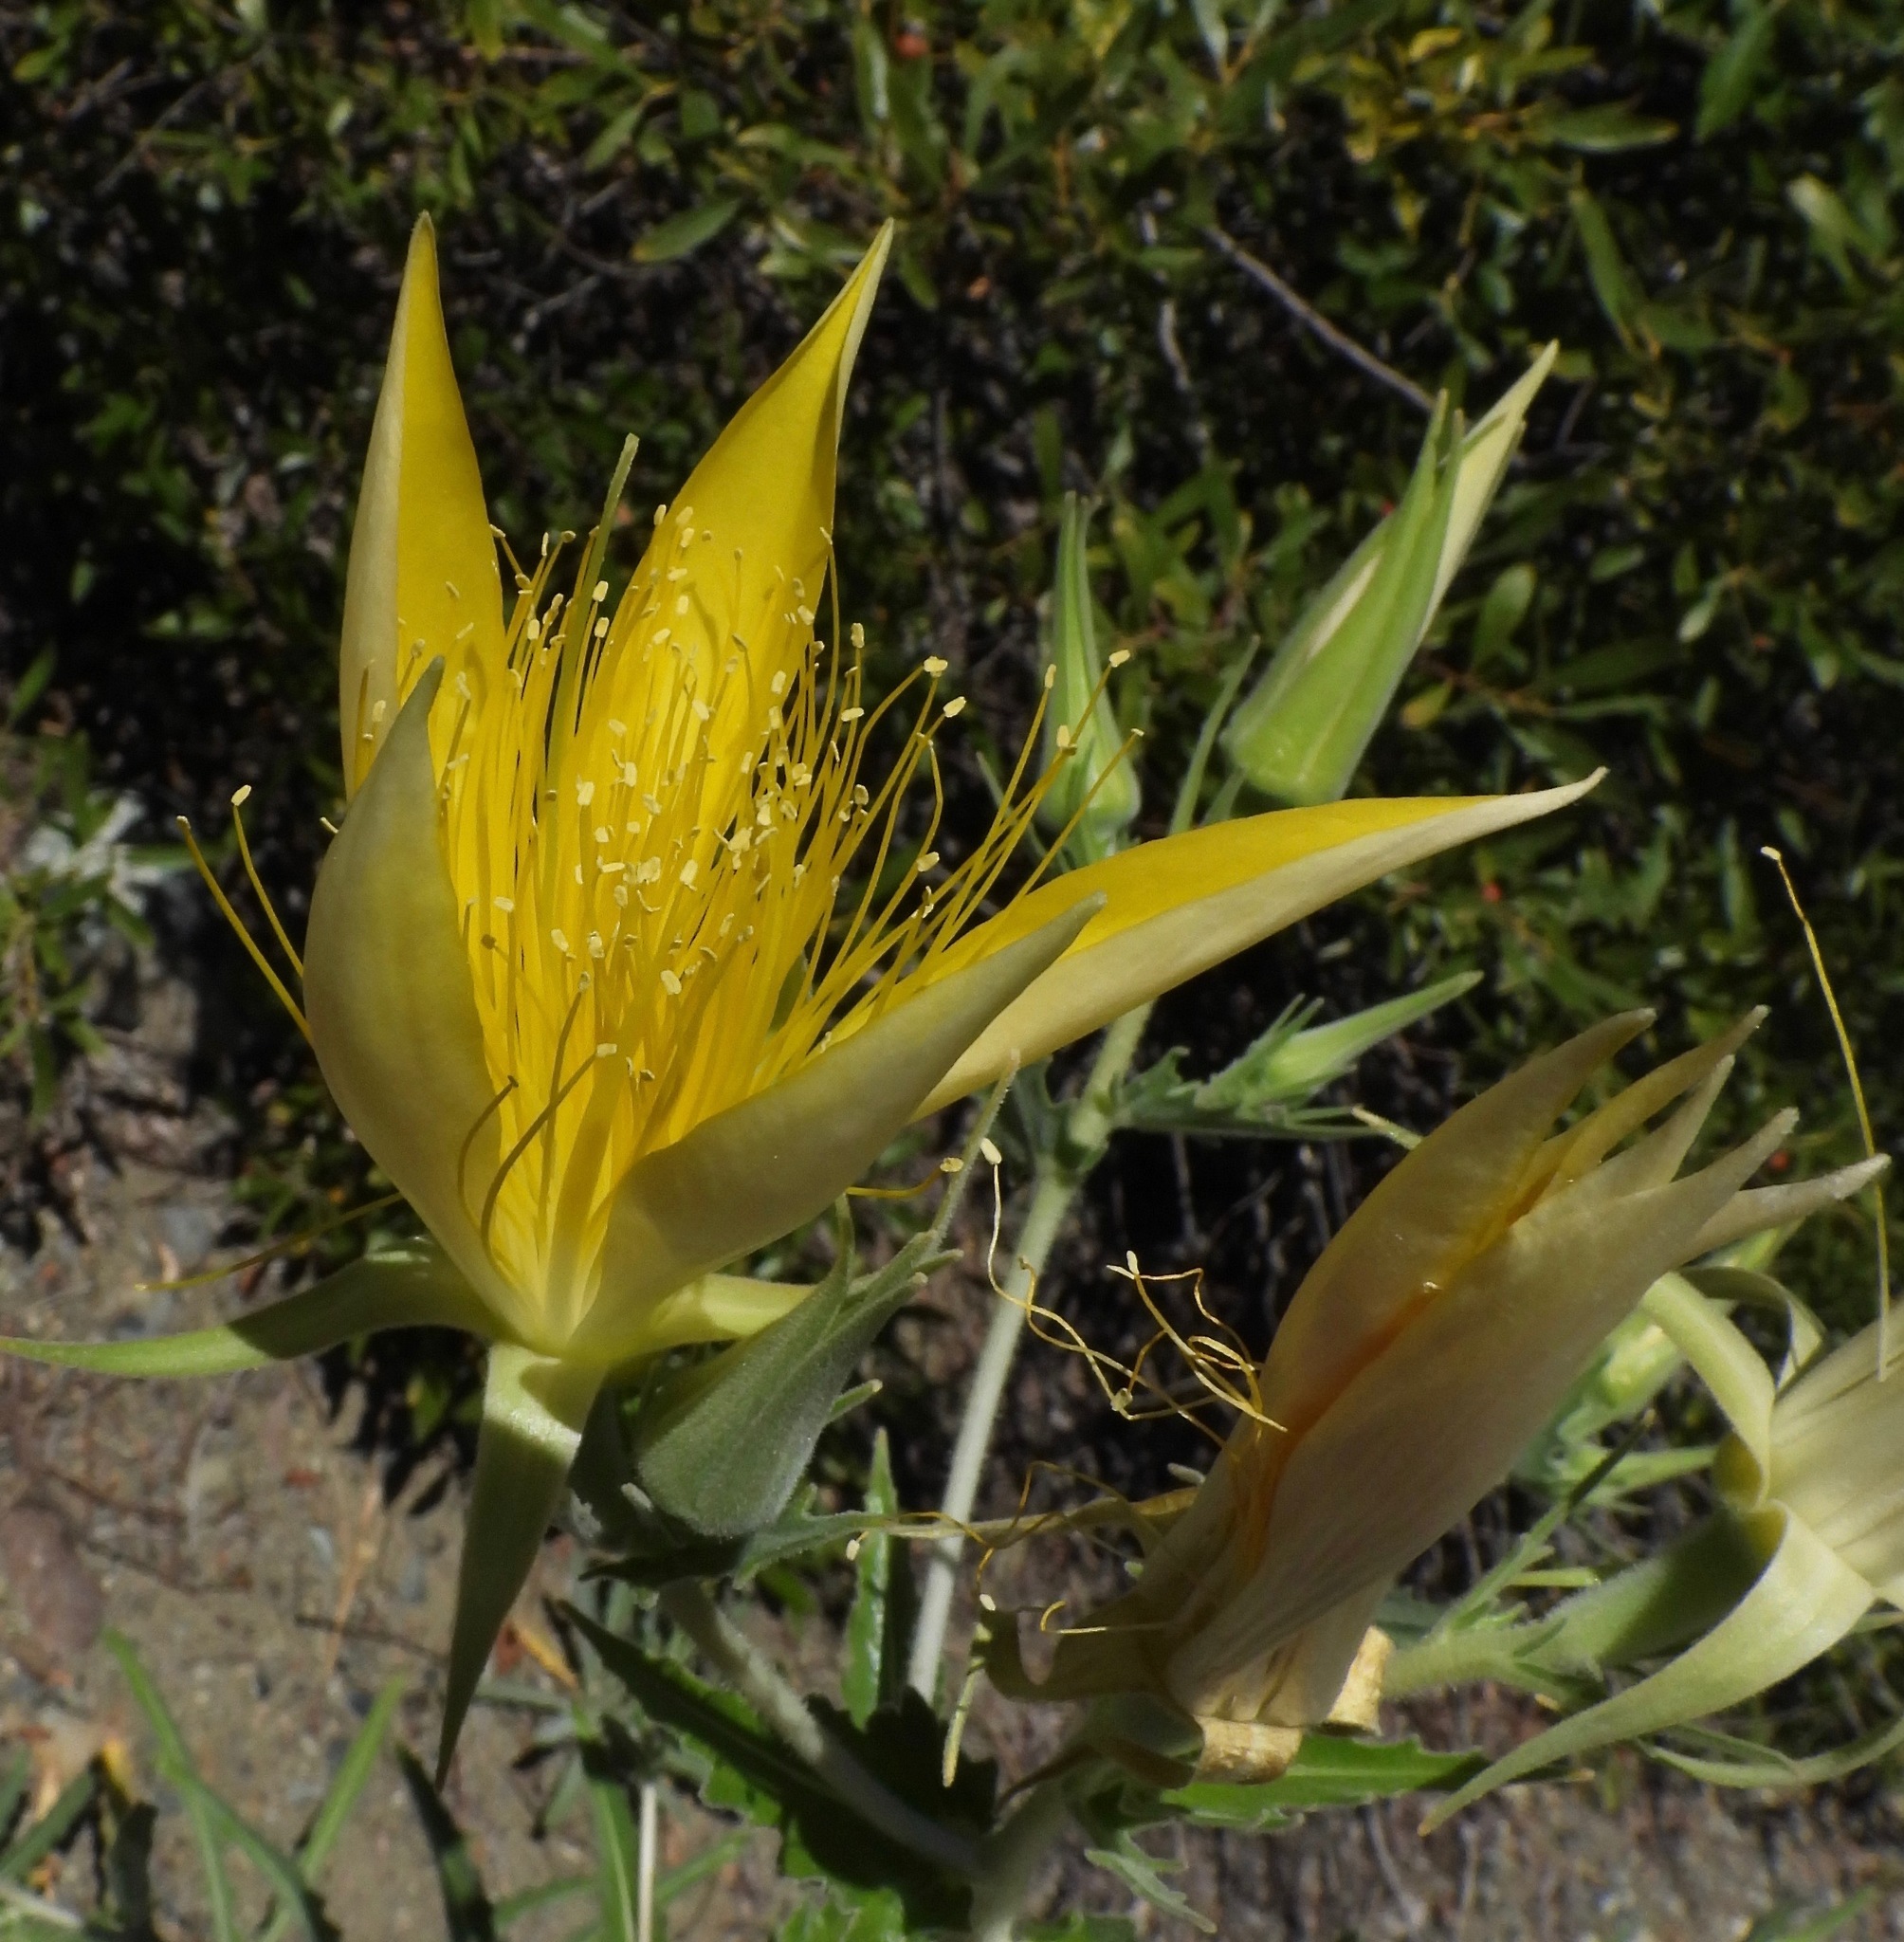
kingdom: Plantae
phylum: Tracheophyta
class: Magnoliopsida
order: Cornales
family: Loasaceae
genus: Mentzelia
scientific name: Mentzelia laevicaulis
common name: Smooth-stem blazingstar
